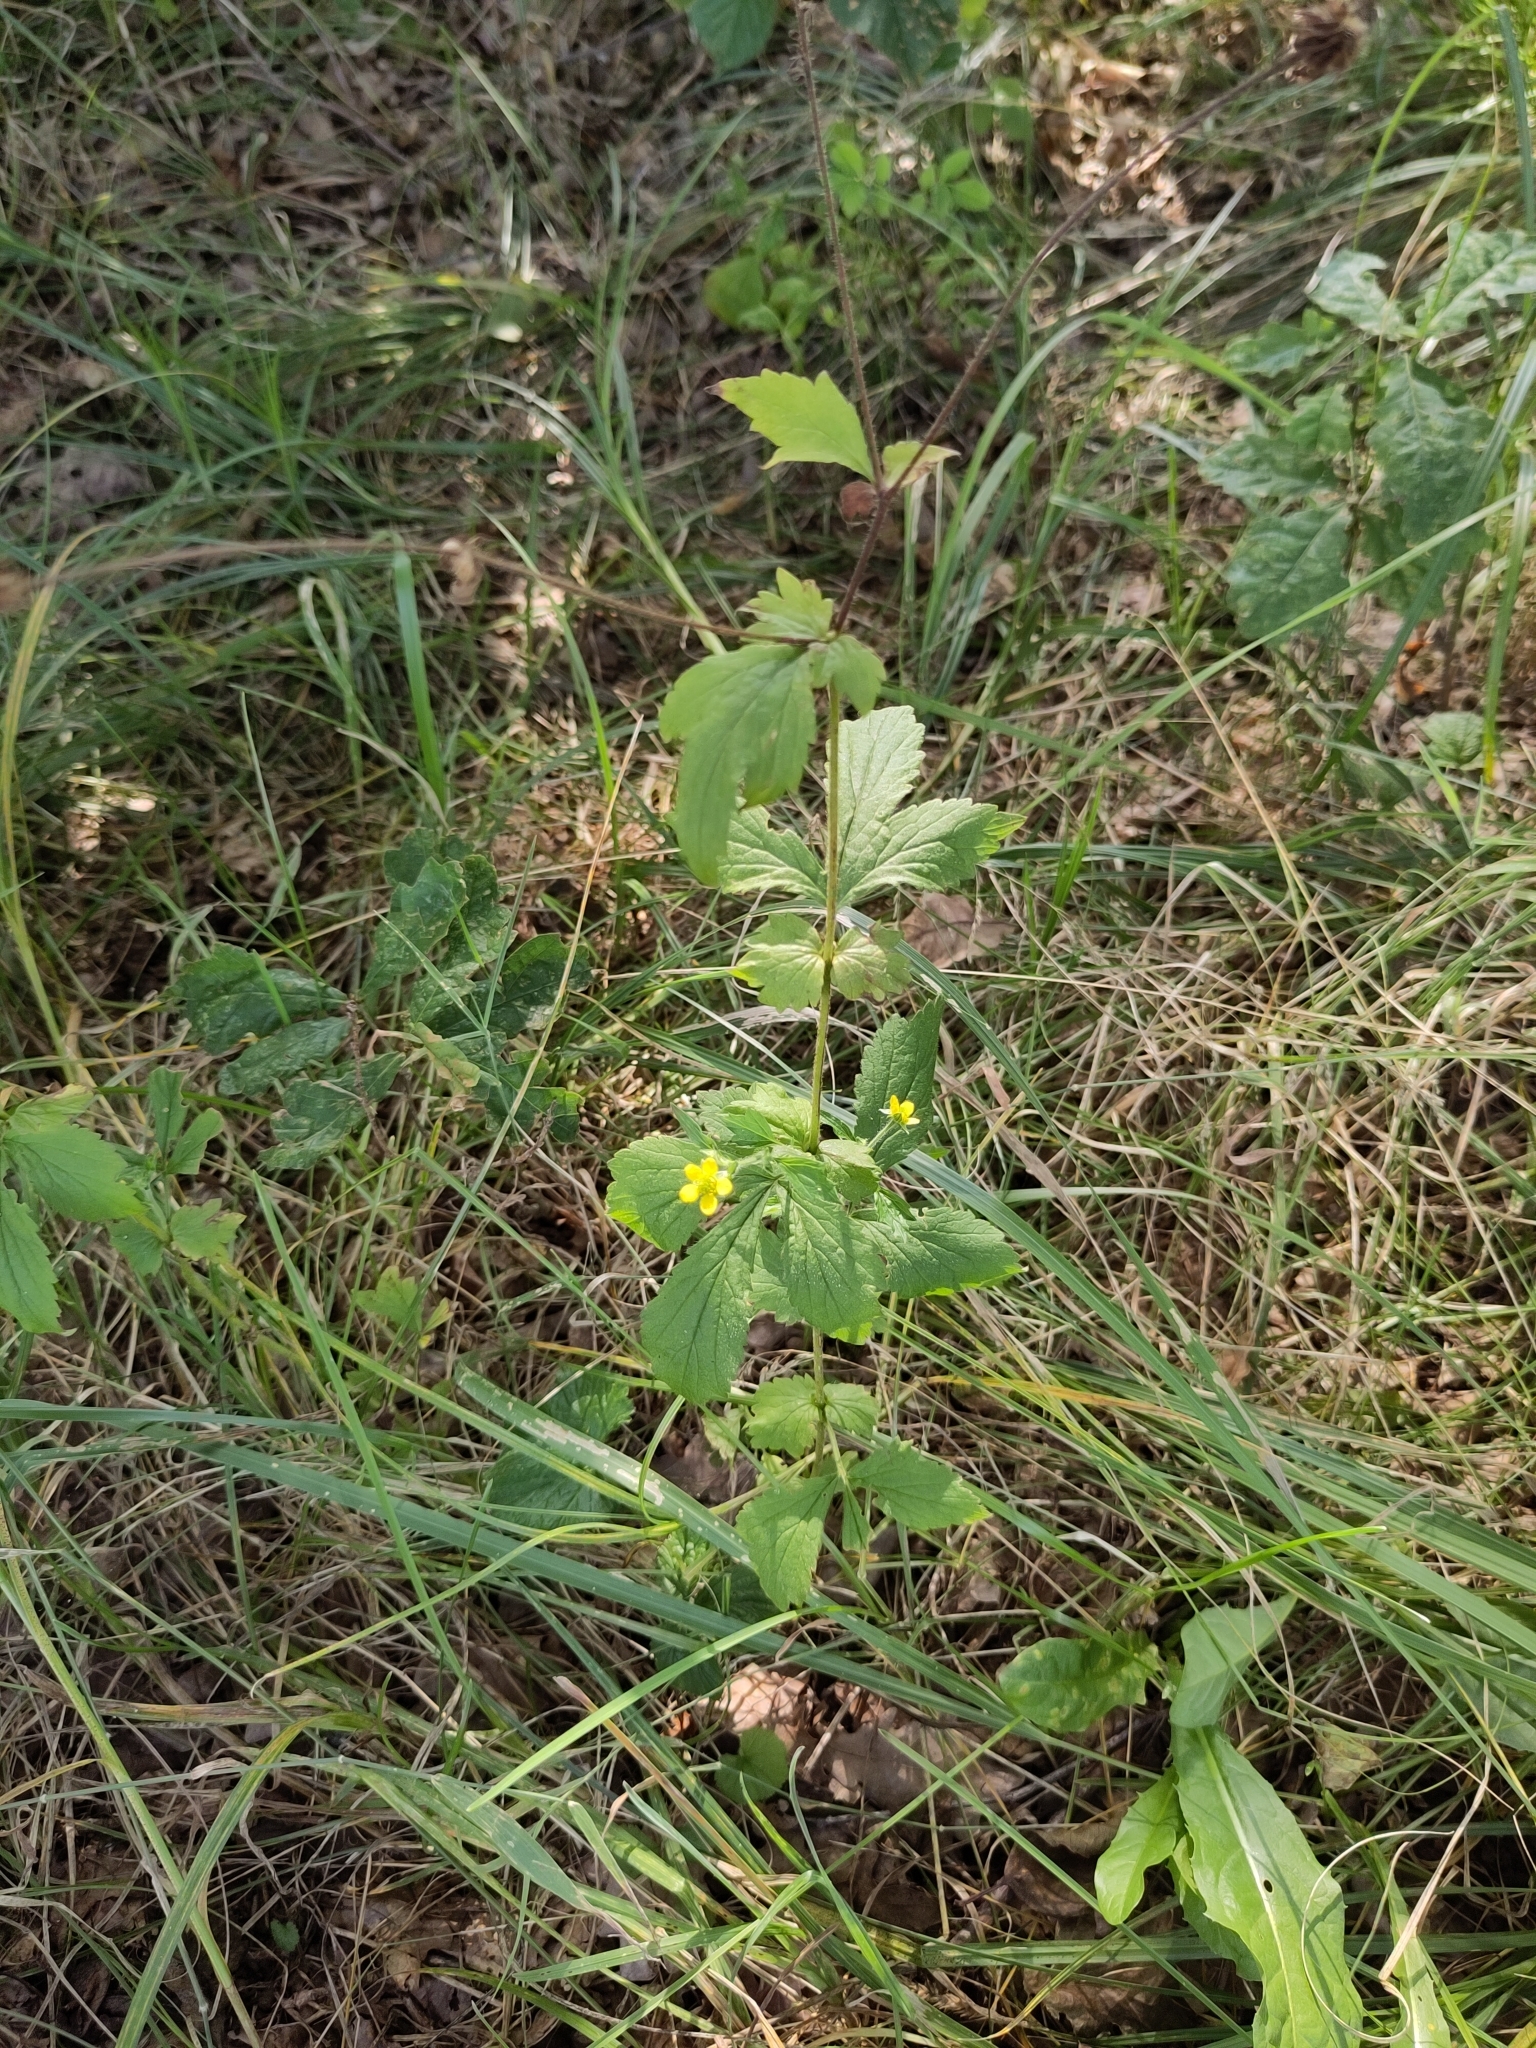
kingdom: Plantae
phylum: Tracheophyta
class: Magnoliopsida
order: Rosales
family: Rosaceae
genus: Geum
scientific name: Geum urbanum
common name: Wood avens
